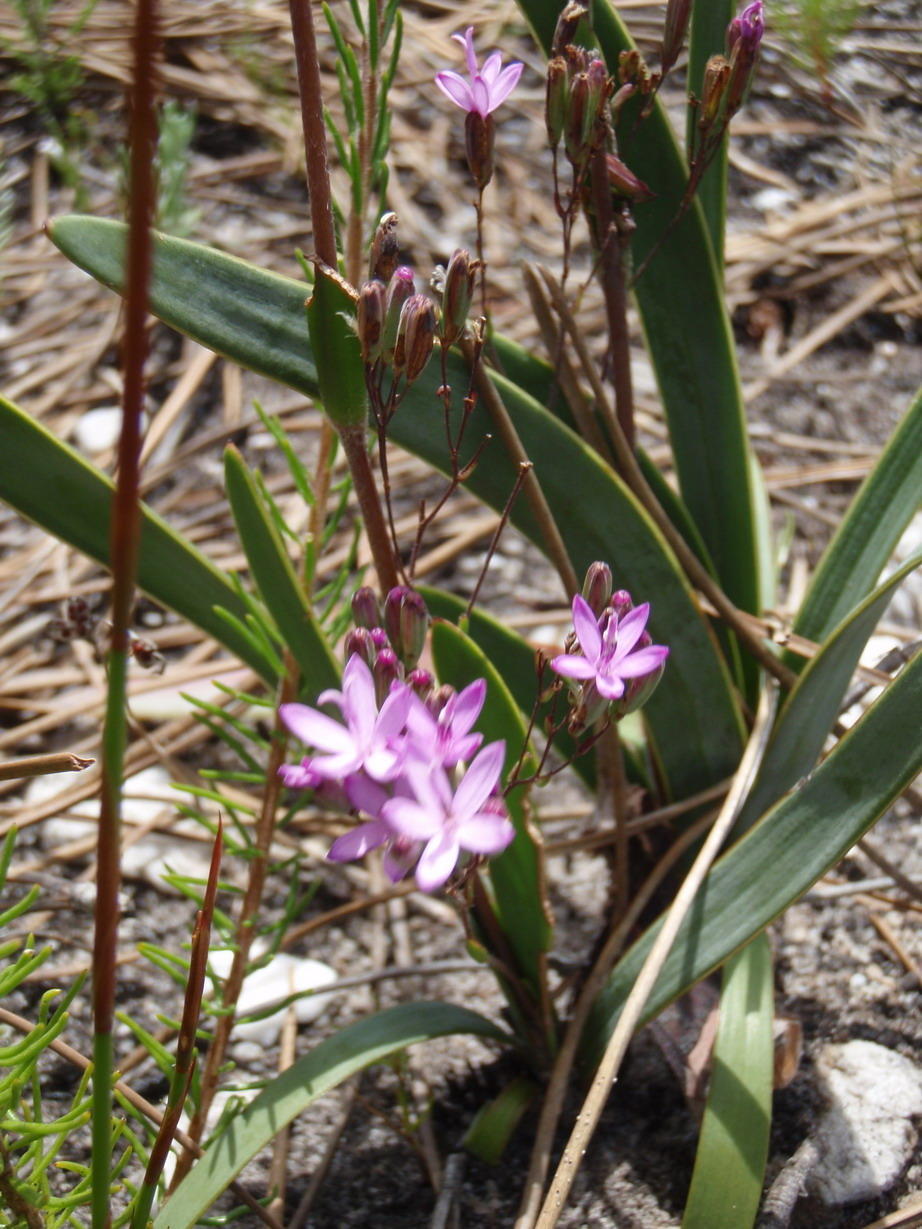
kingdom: Plantae
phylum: Tracheophyta
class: Magnoliopsida
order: Asterales
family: Asteraceae
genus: Corymbium
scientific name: Corymbium glabrum
